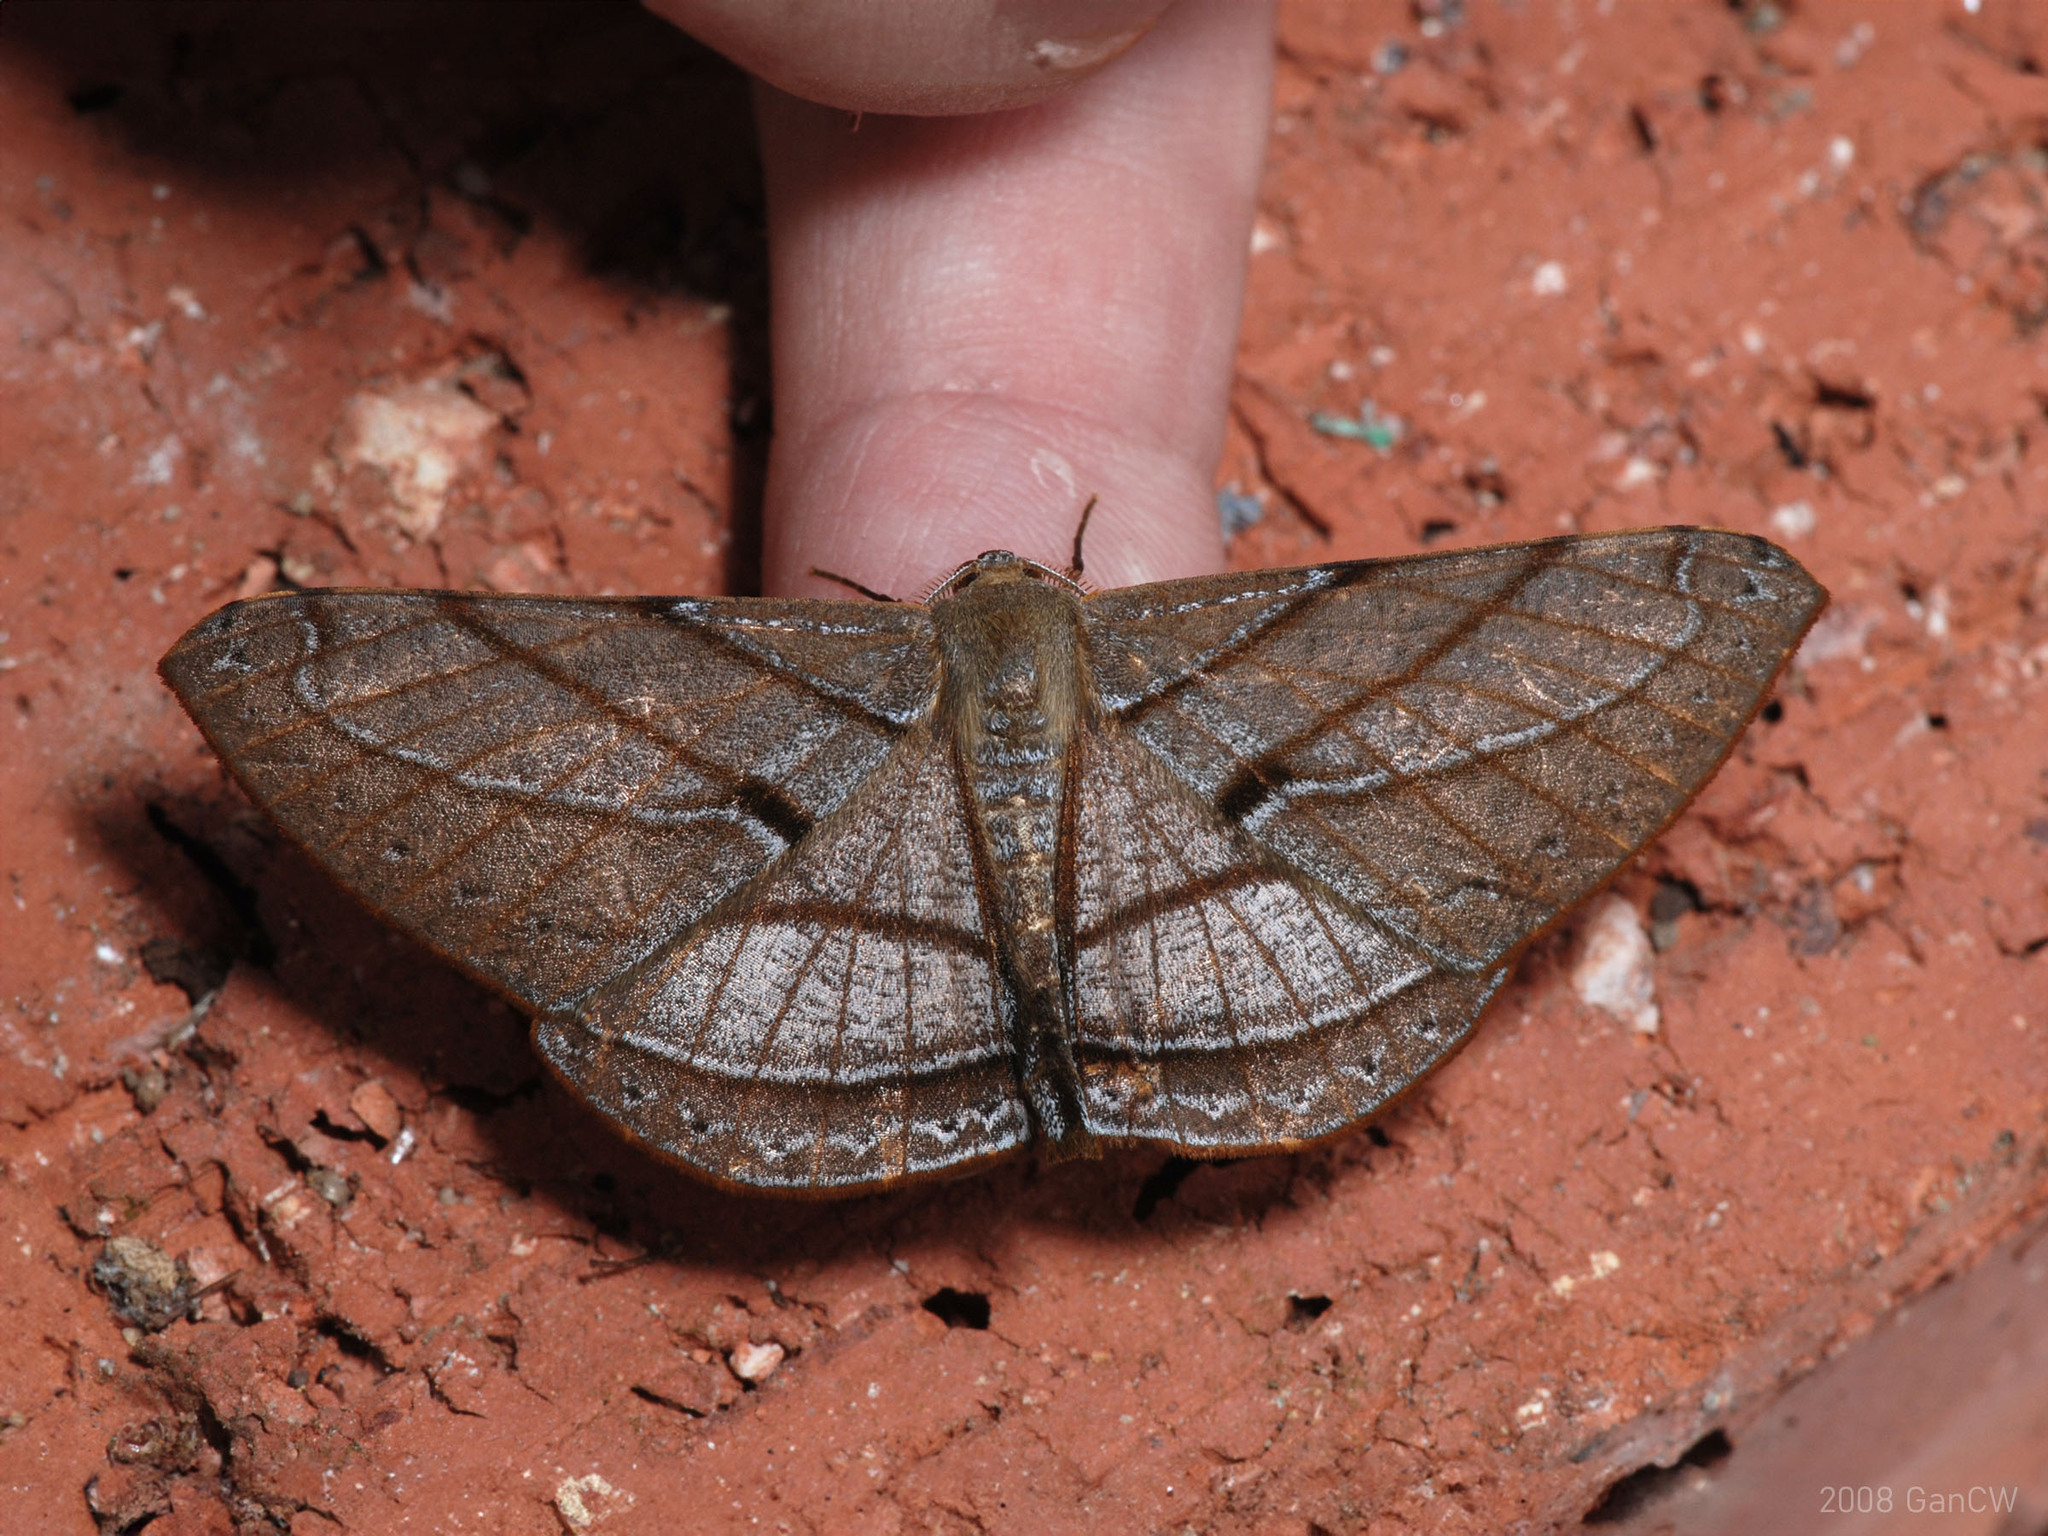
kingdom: Animalia
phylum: Arthropoda
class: Insecta
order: Lepidoptera
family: Geometridae
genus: Dalima
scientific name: Dalima patularia
